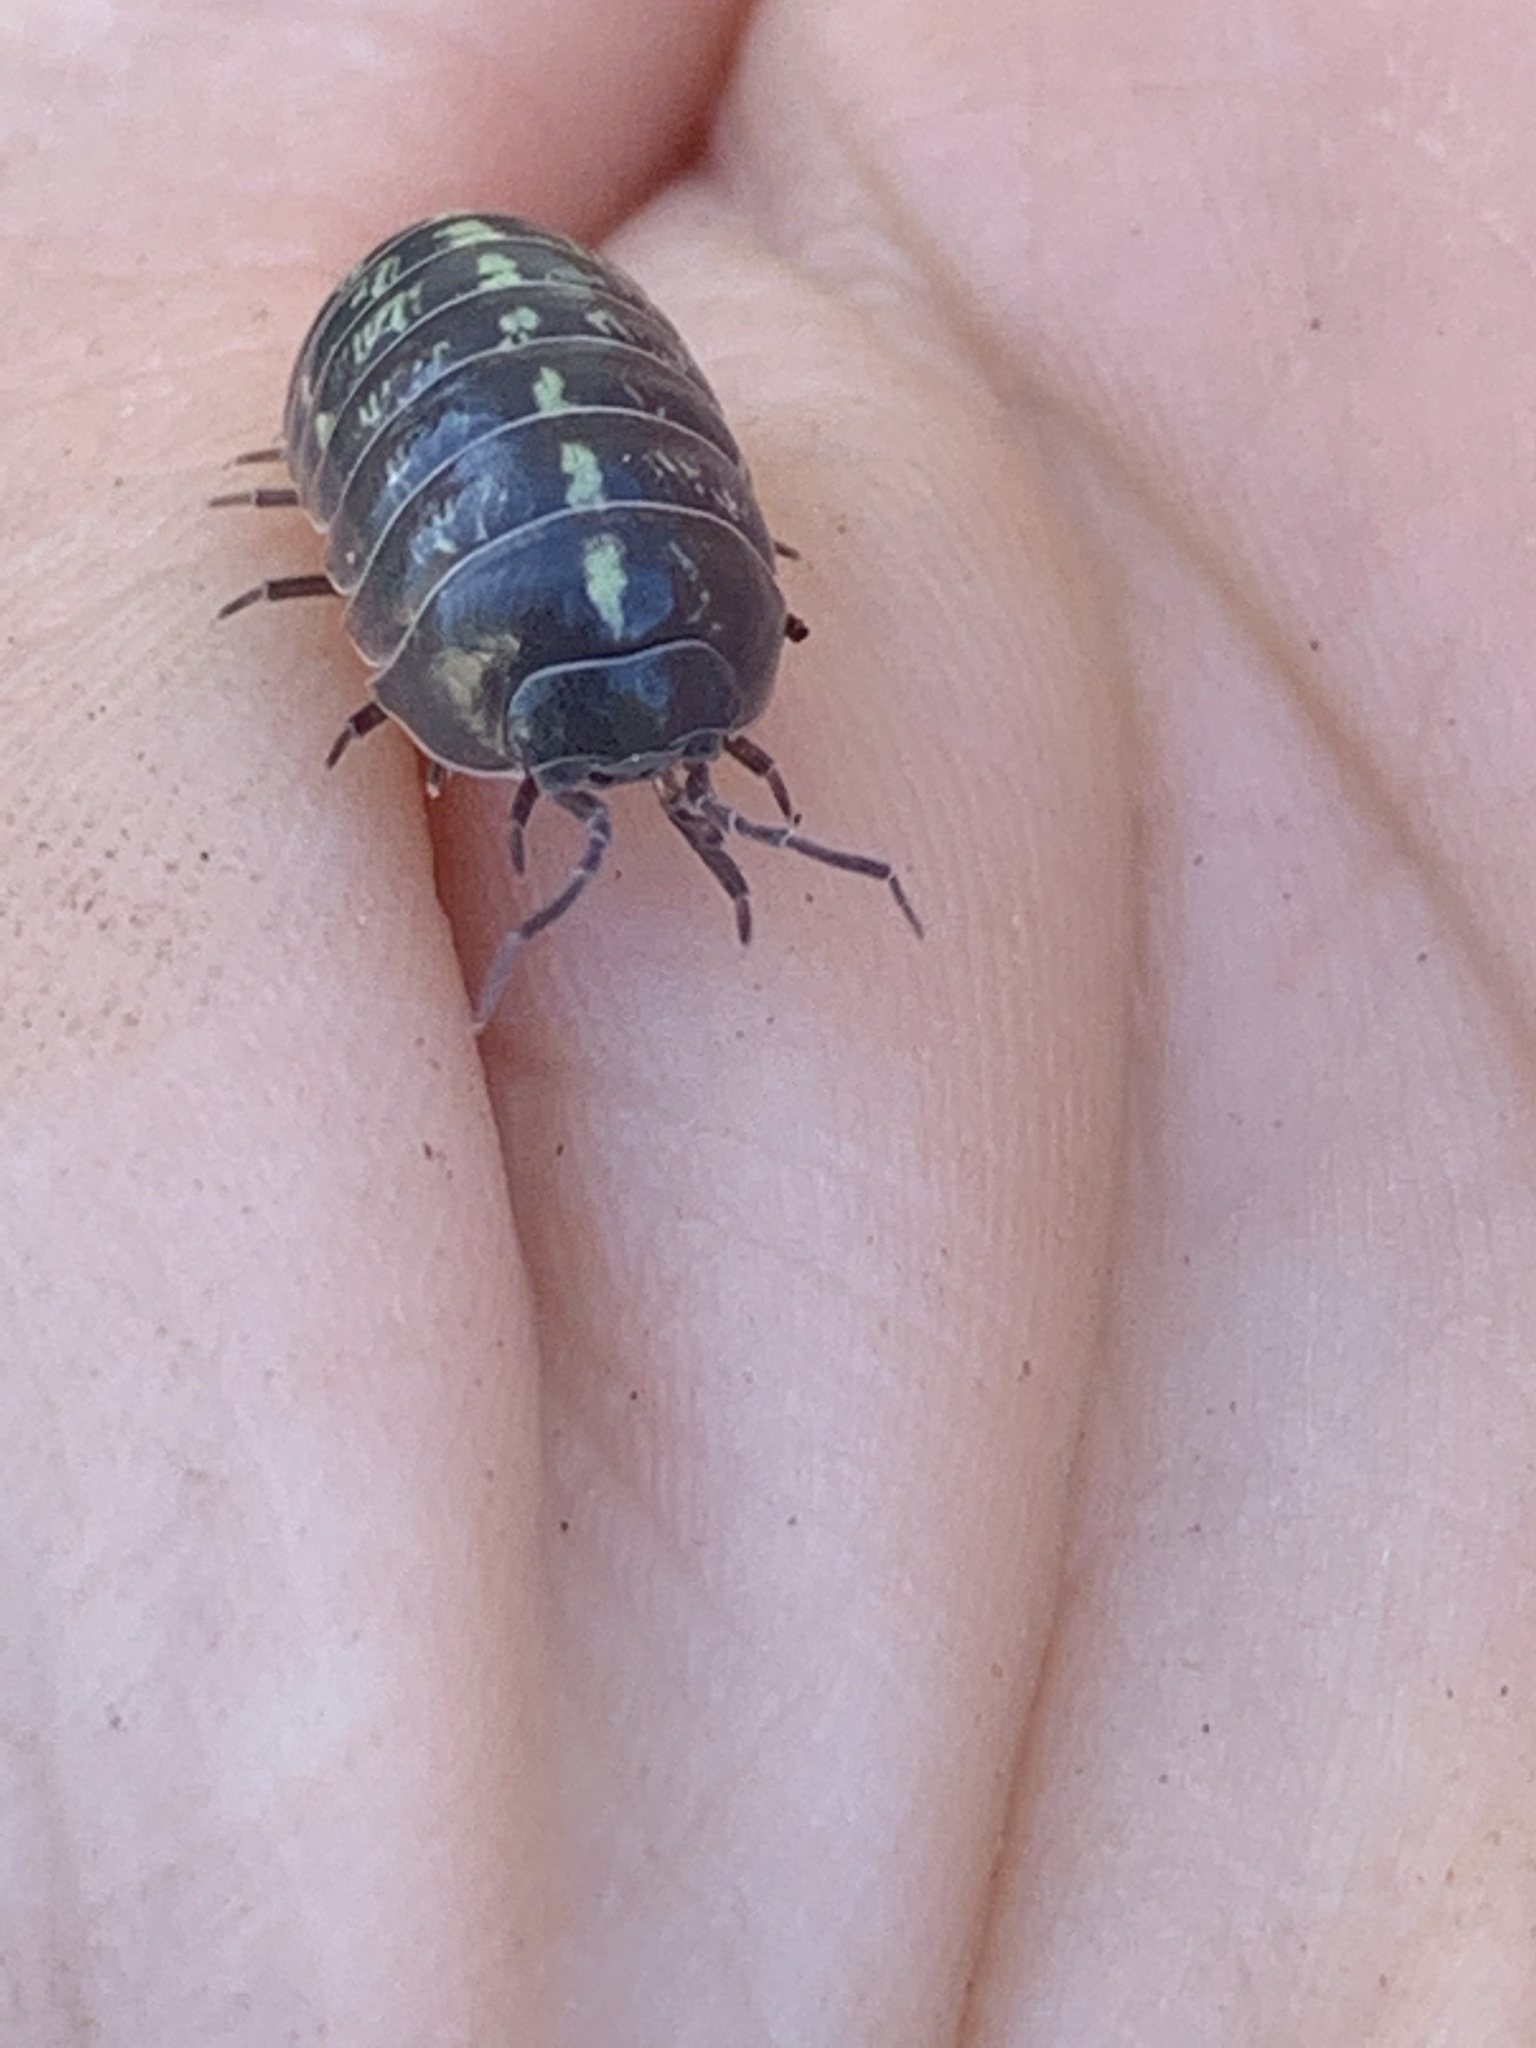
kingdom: Animalia
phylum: Arthropoda
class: Malacostraca
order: Isopoda
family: Armadillidiidae
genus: Armadillidium
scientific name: Armadillidium vulgare
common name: Common pill woodlouse
